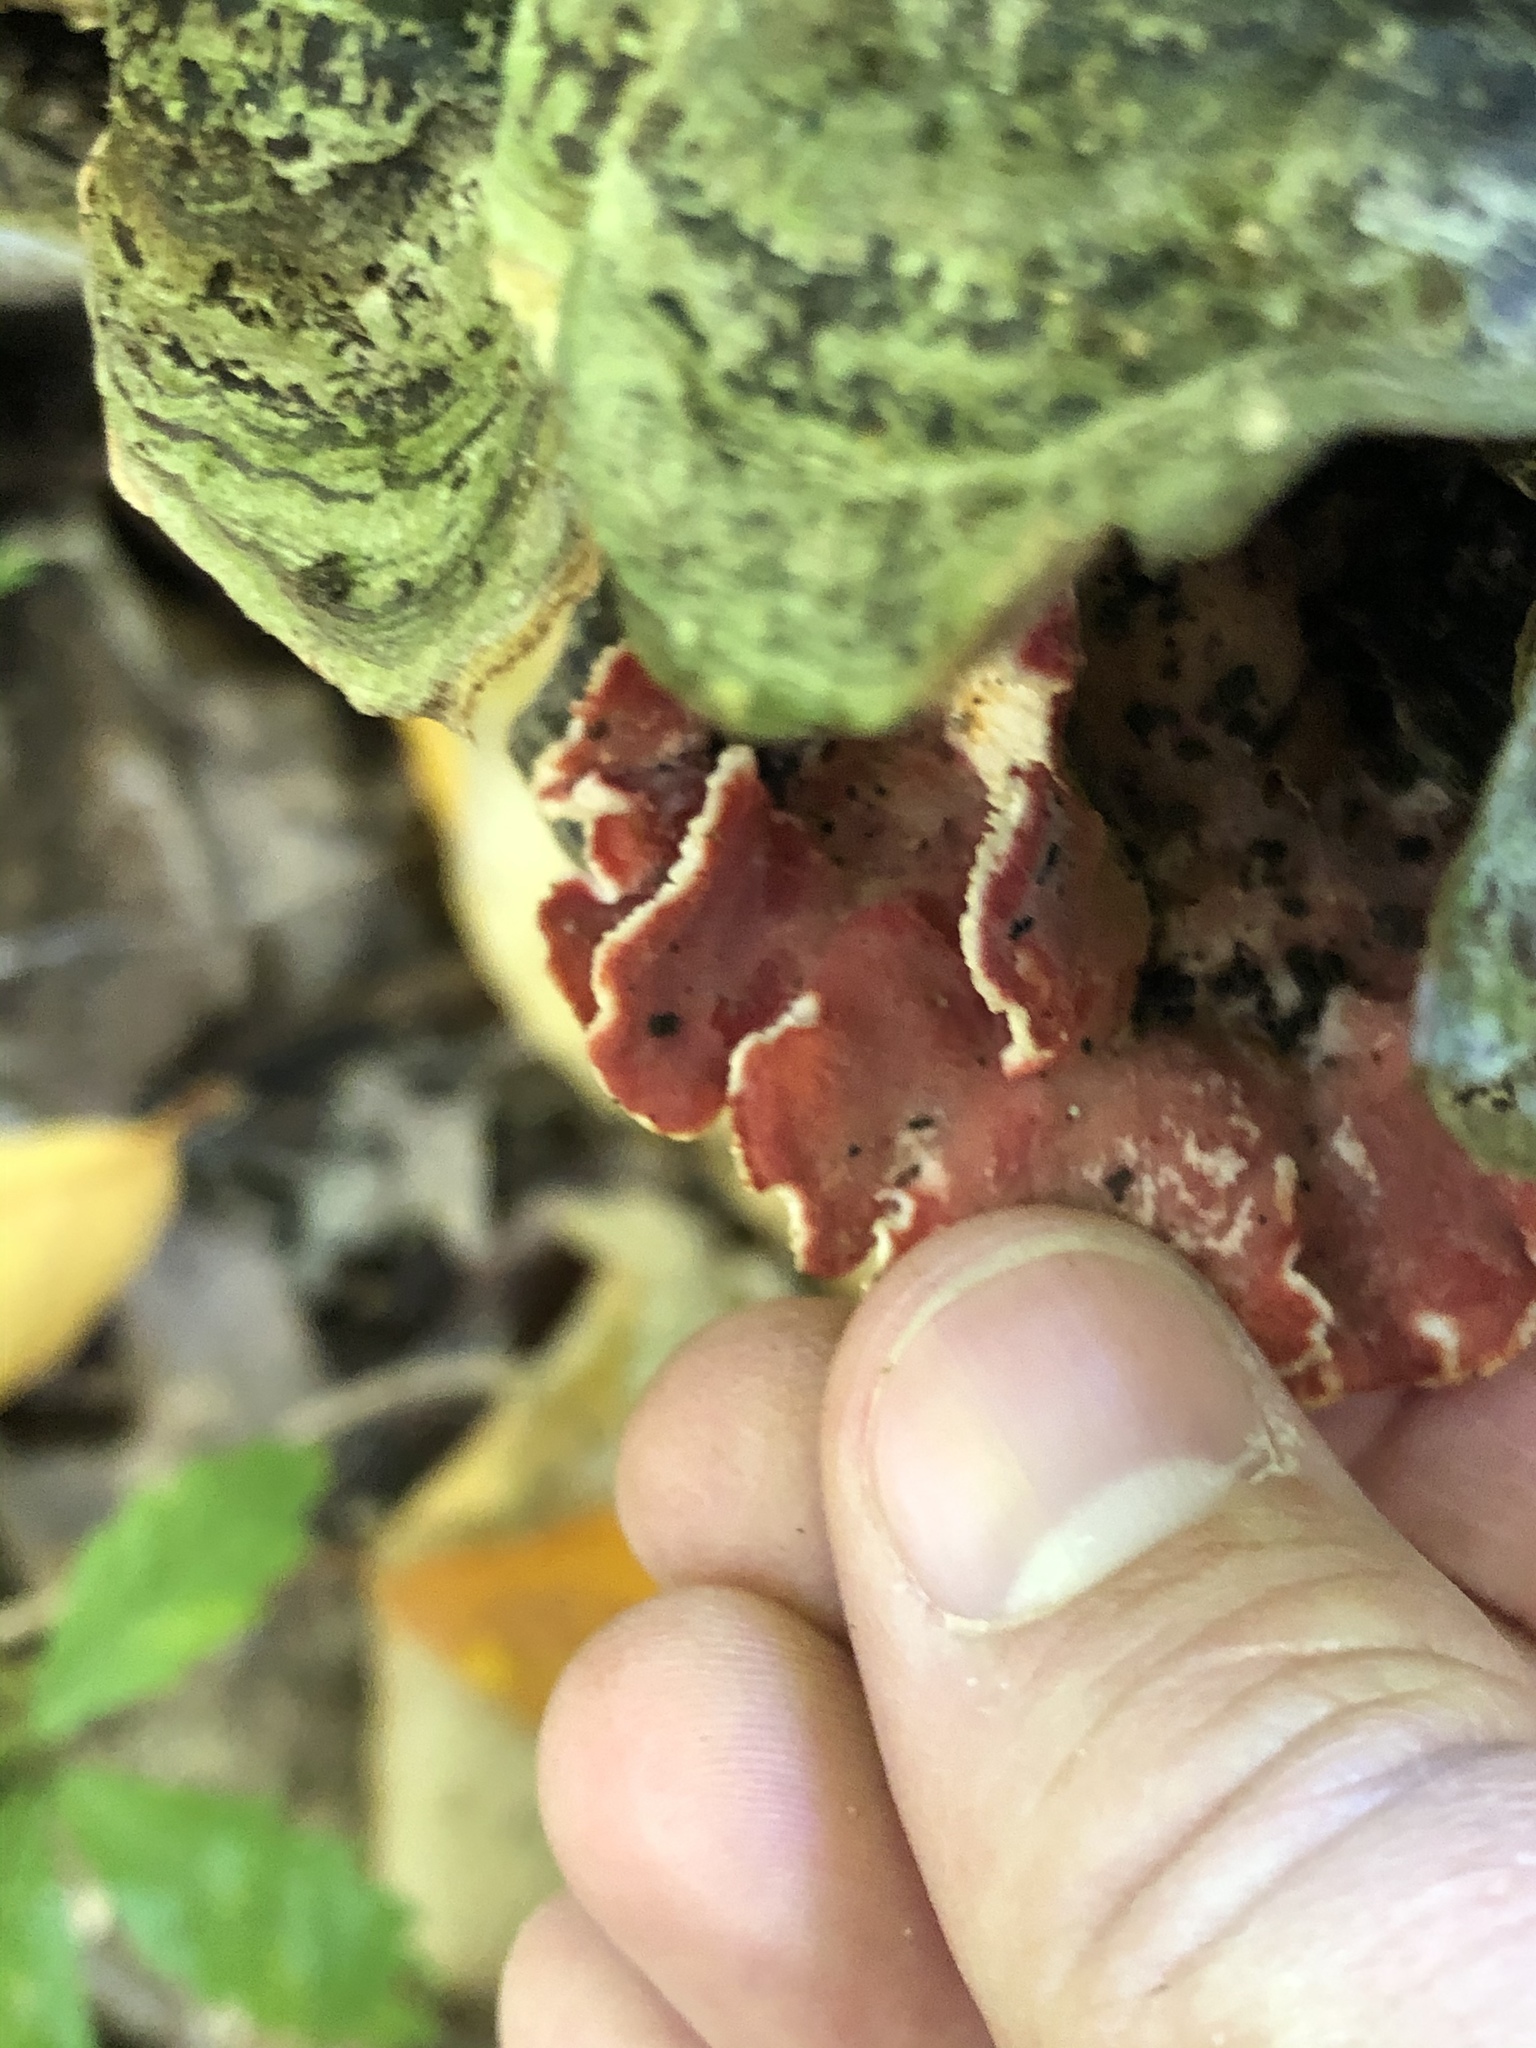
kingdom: Fungi
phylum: Basidiomycota
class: Agaricomycetes
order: Polyporales
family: Irpicaceae
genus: Byssomerulius
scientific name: Byssomerulius incarnatus
